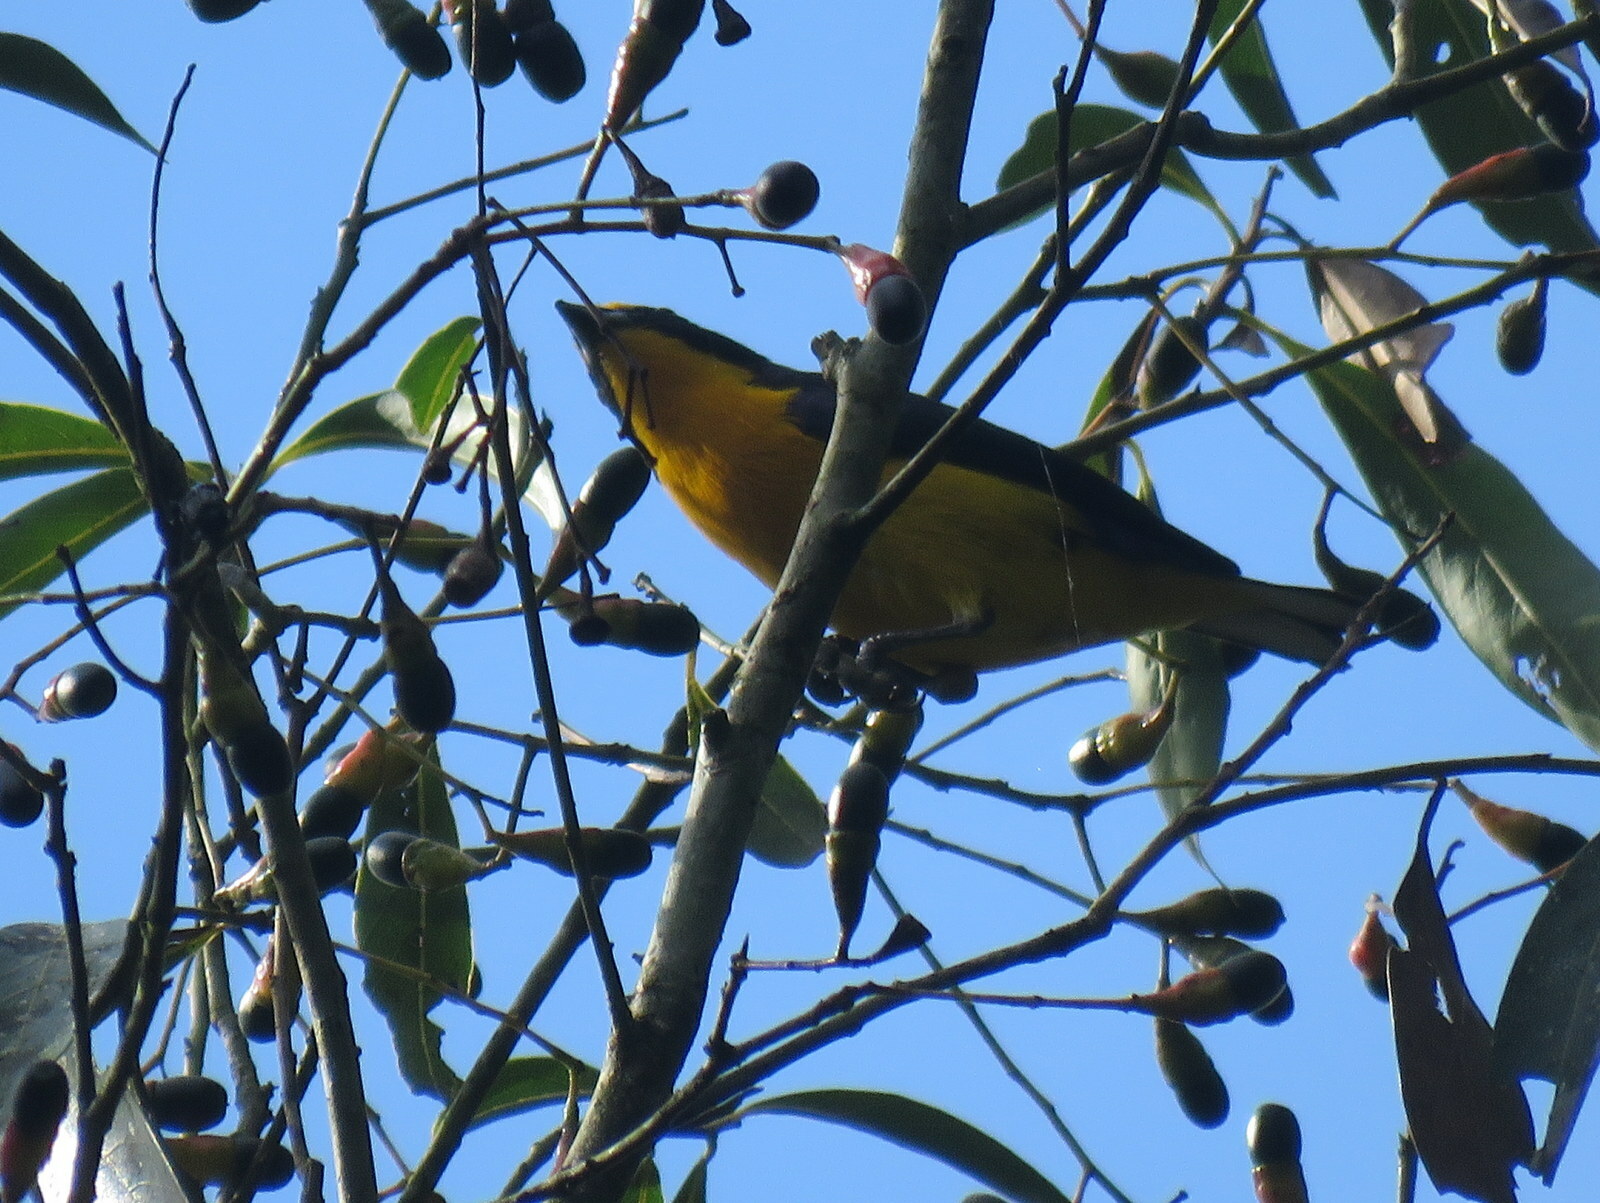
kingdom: Animalia
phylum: Chordata
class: Aves
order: Passeriformes
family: Fringillidae
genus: Euphonia
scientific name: Euphonia violacea
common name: Violaceous euphonia
